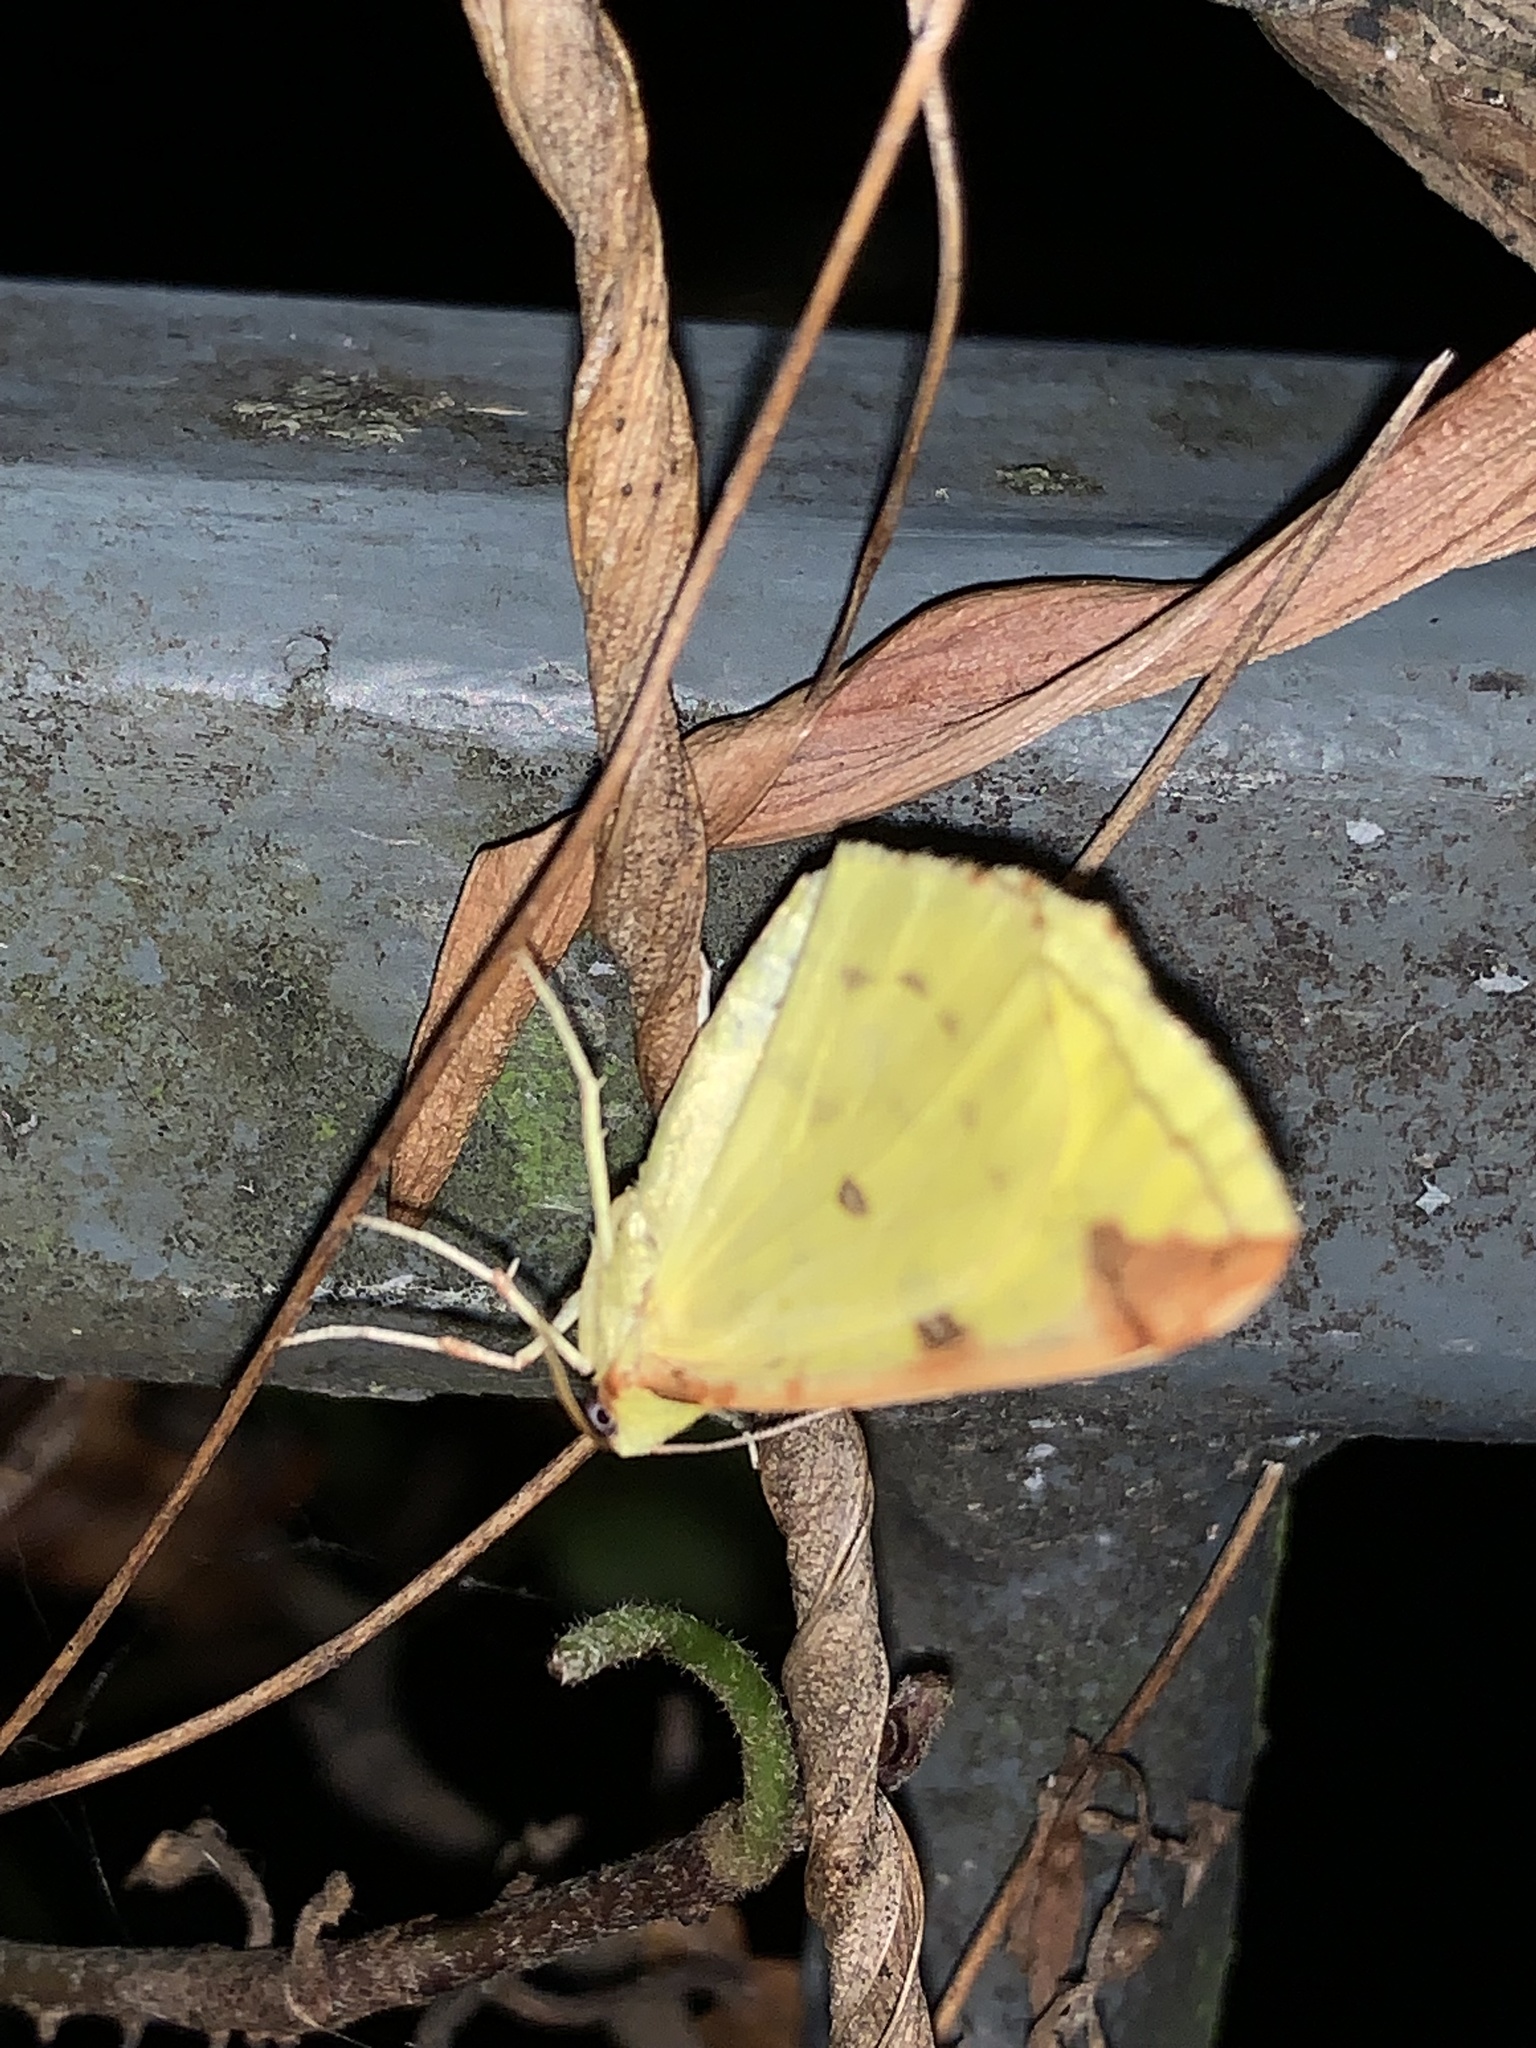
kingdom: Animalia
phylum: Arthropoda
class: Insecta
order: Lepidoptera
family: Geometridae
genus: Opisthograptis
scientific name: Opisthograptis luteolata
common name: Brimstone moth
